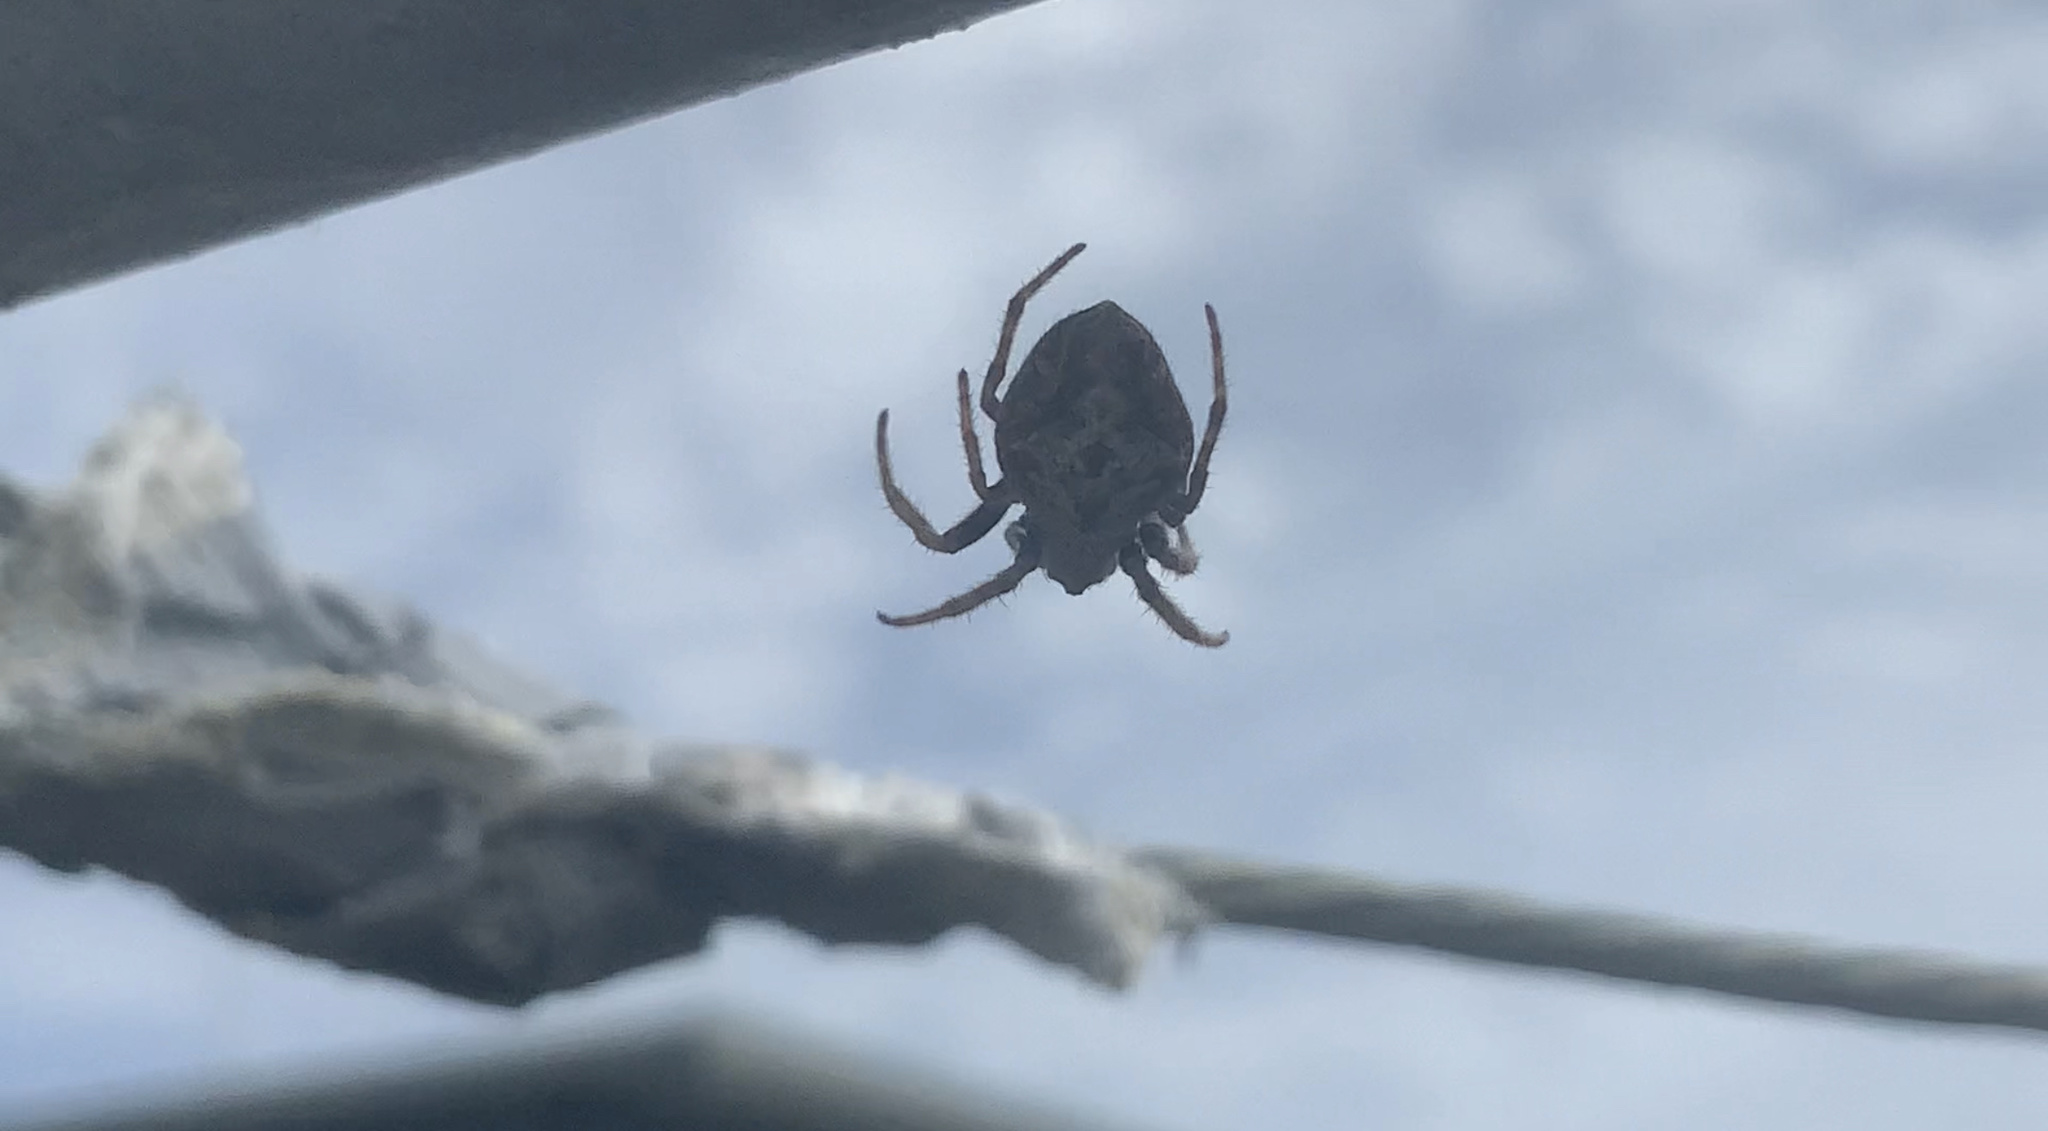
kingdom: Animalia
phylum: Arthropoda
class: Arachnida
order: Araneae
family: Araneidae
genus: Eriophora
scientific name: Eriophora pustulosa
